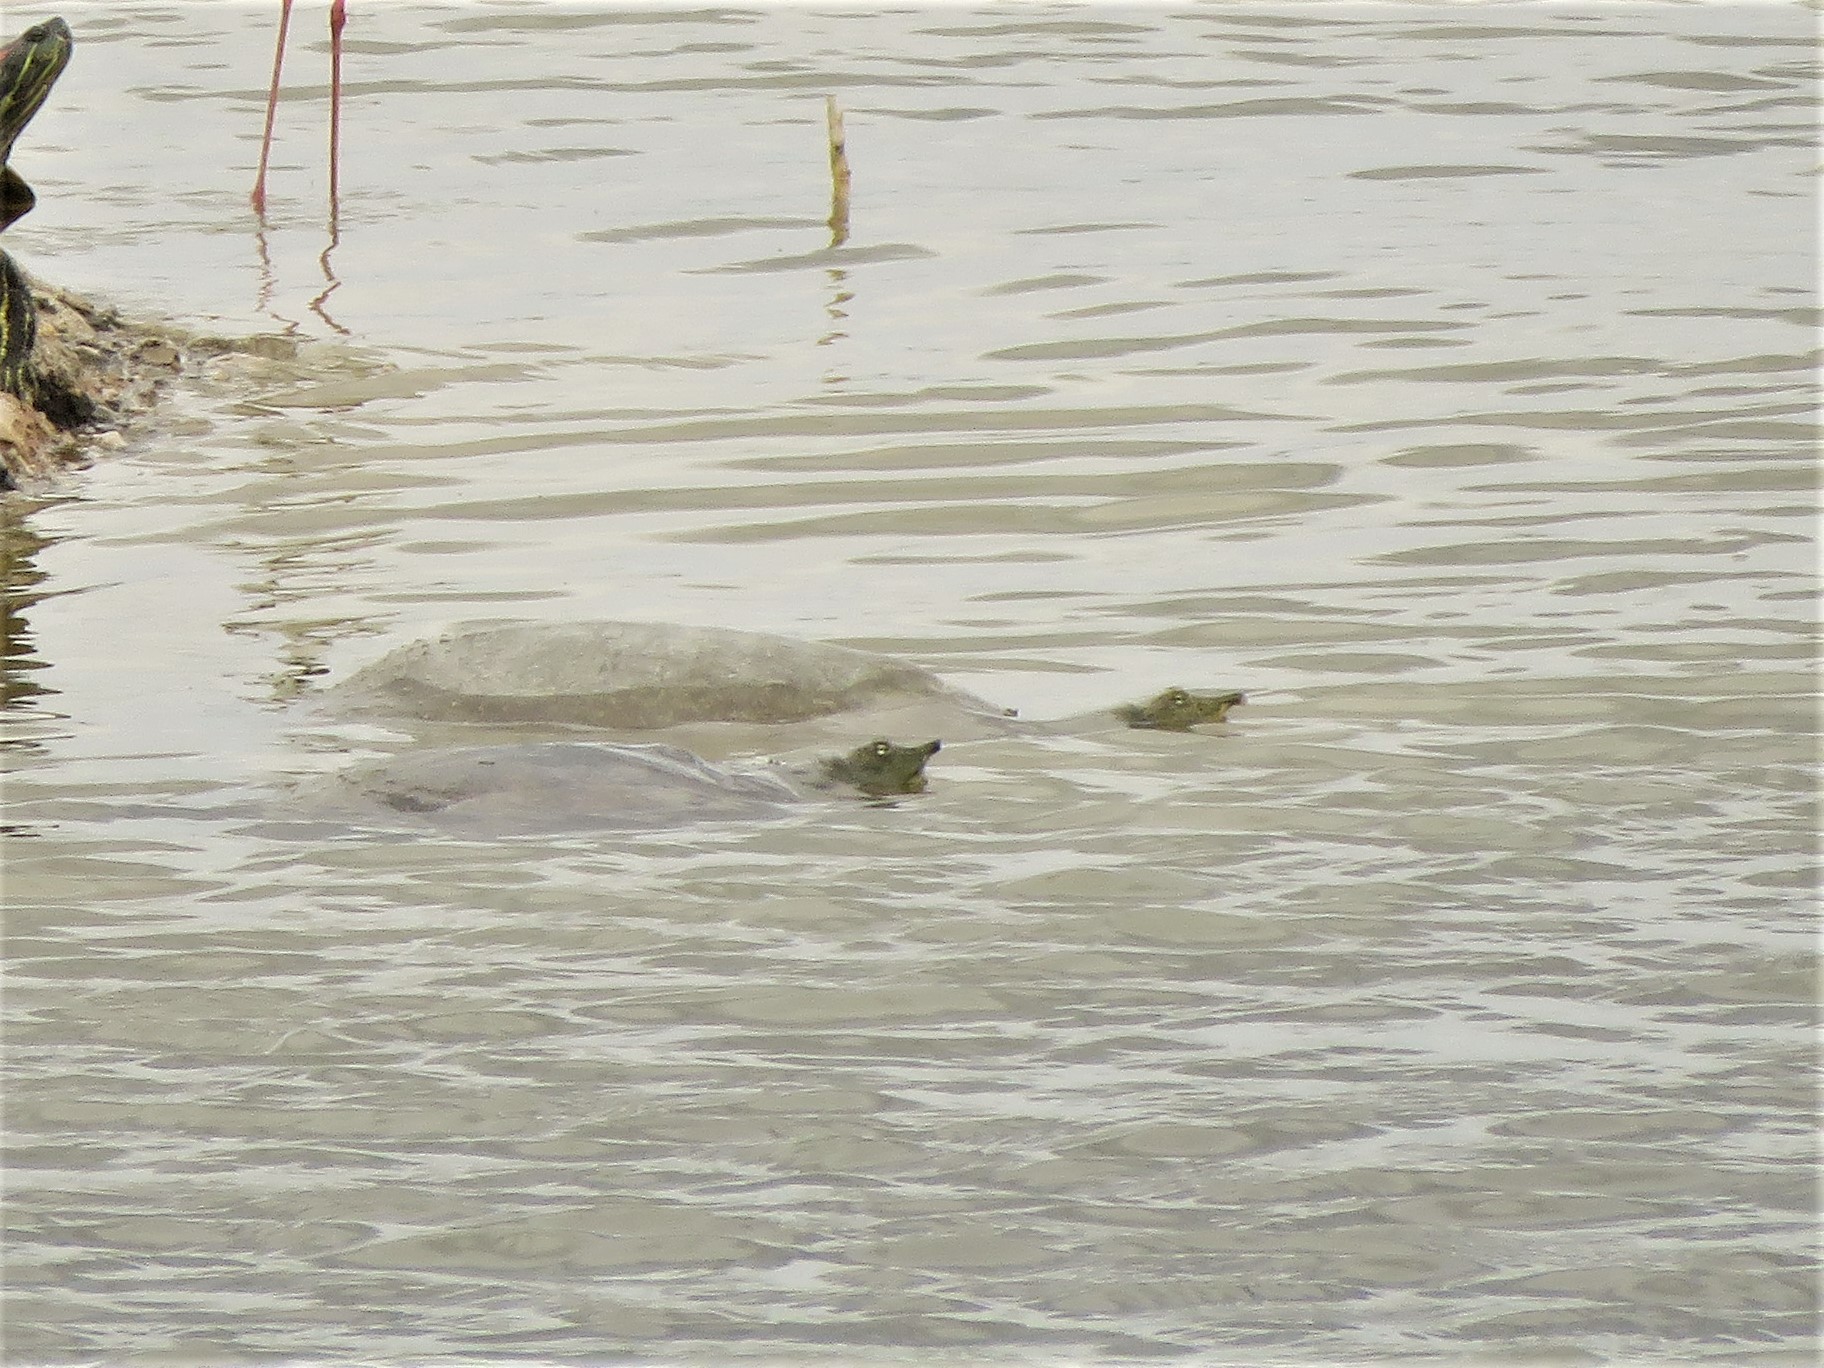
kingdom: Animalia
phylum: Chordata
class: Testudines
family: Trionychidae
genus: Apalone
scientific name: Apalone spinifera
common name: Spiny softshell turtle
